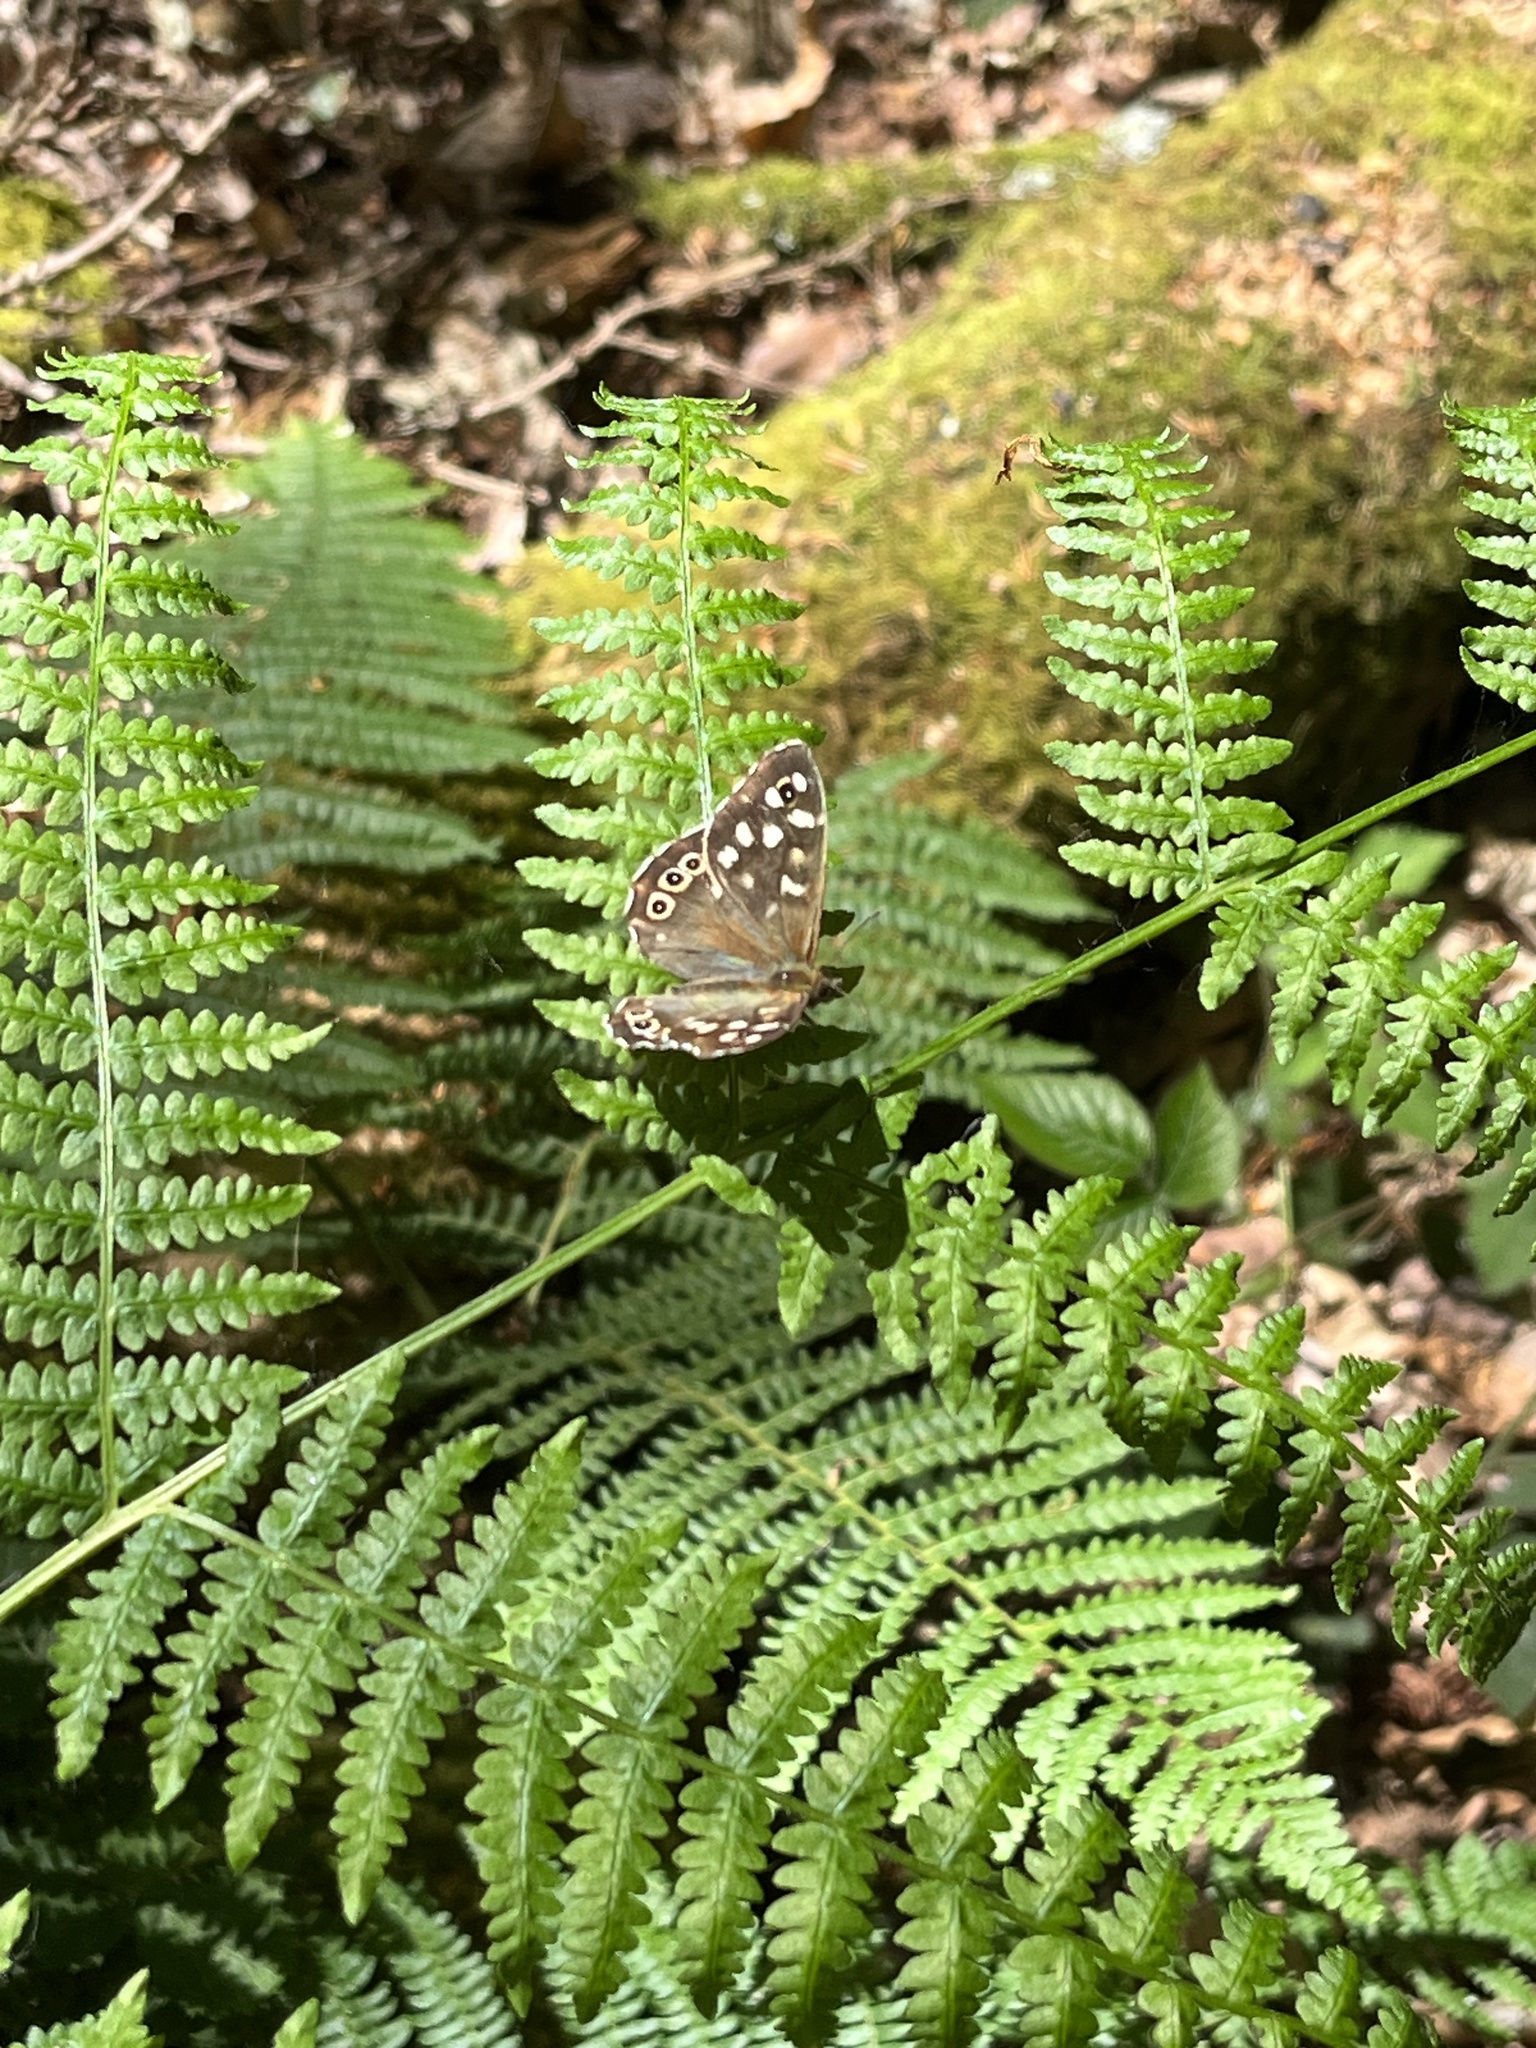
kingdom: Animalia
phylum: Arthropoda
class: Insecta
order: Lepidoptera
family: Nymphalidae
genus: Pararge
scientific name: Pararge aegeria
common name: Speckled wood
